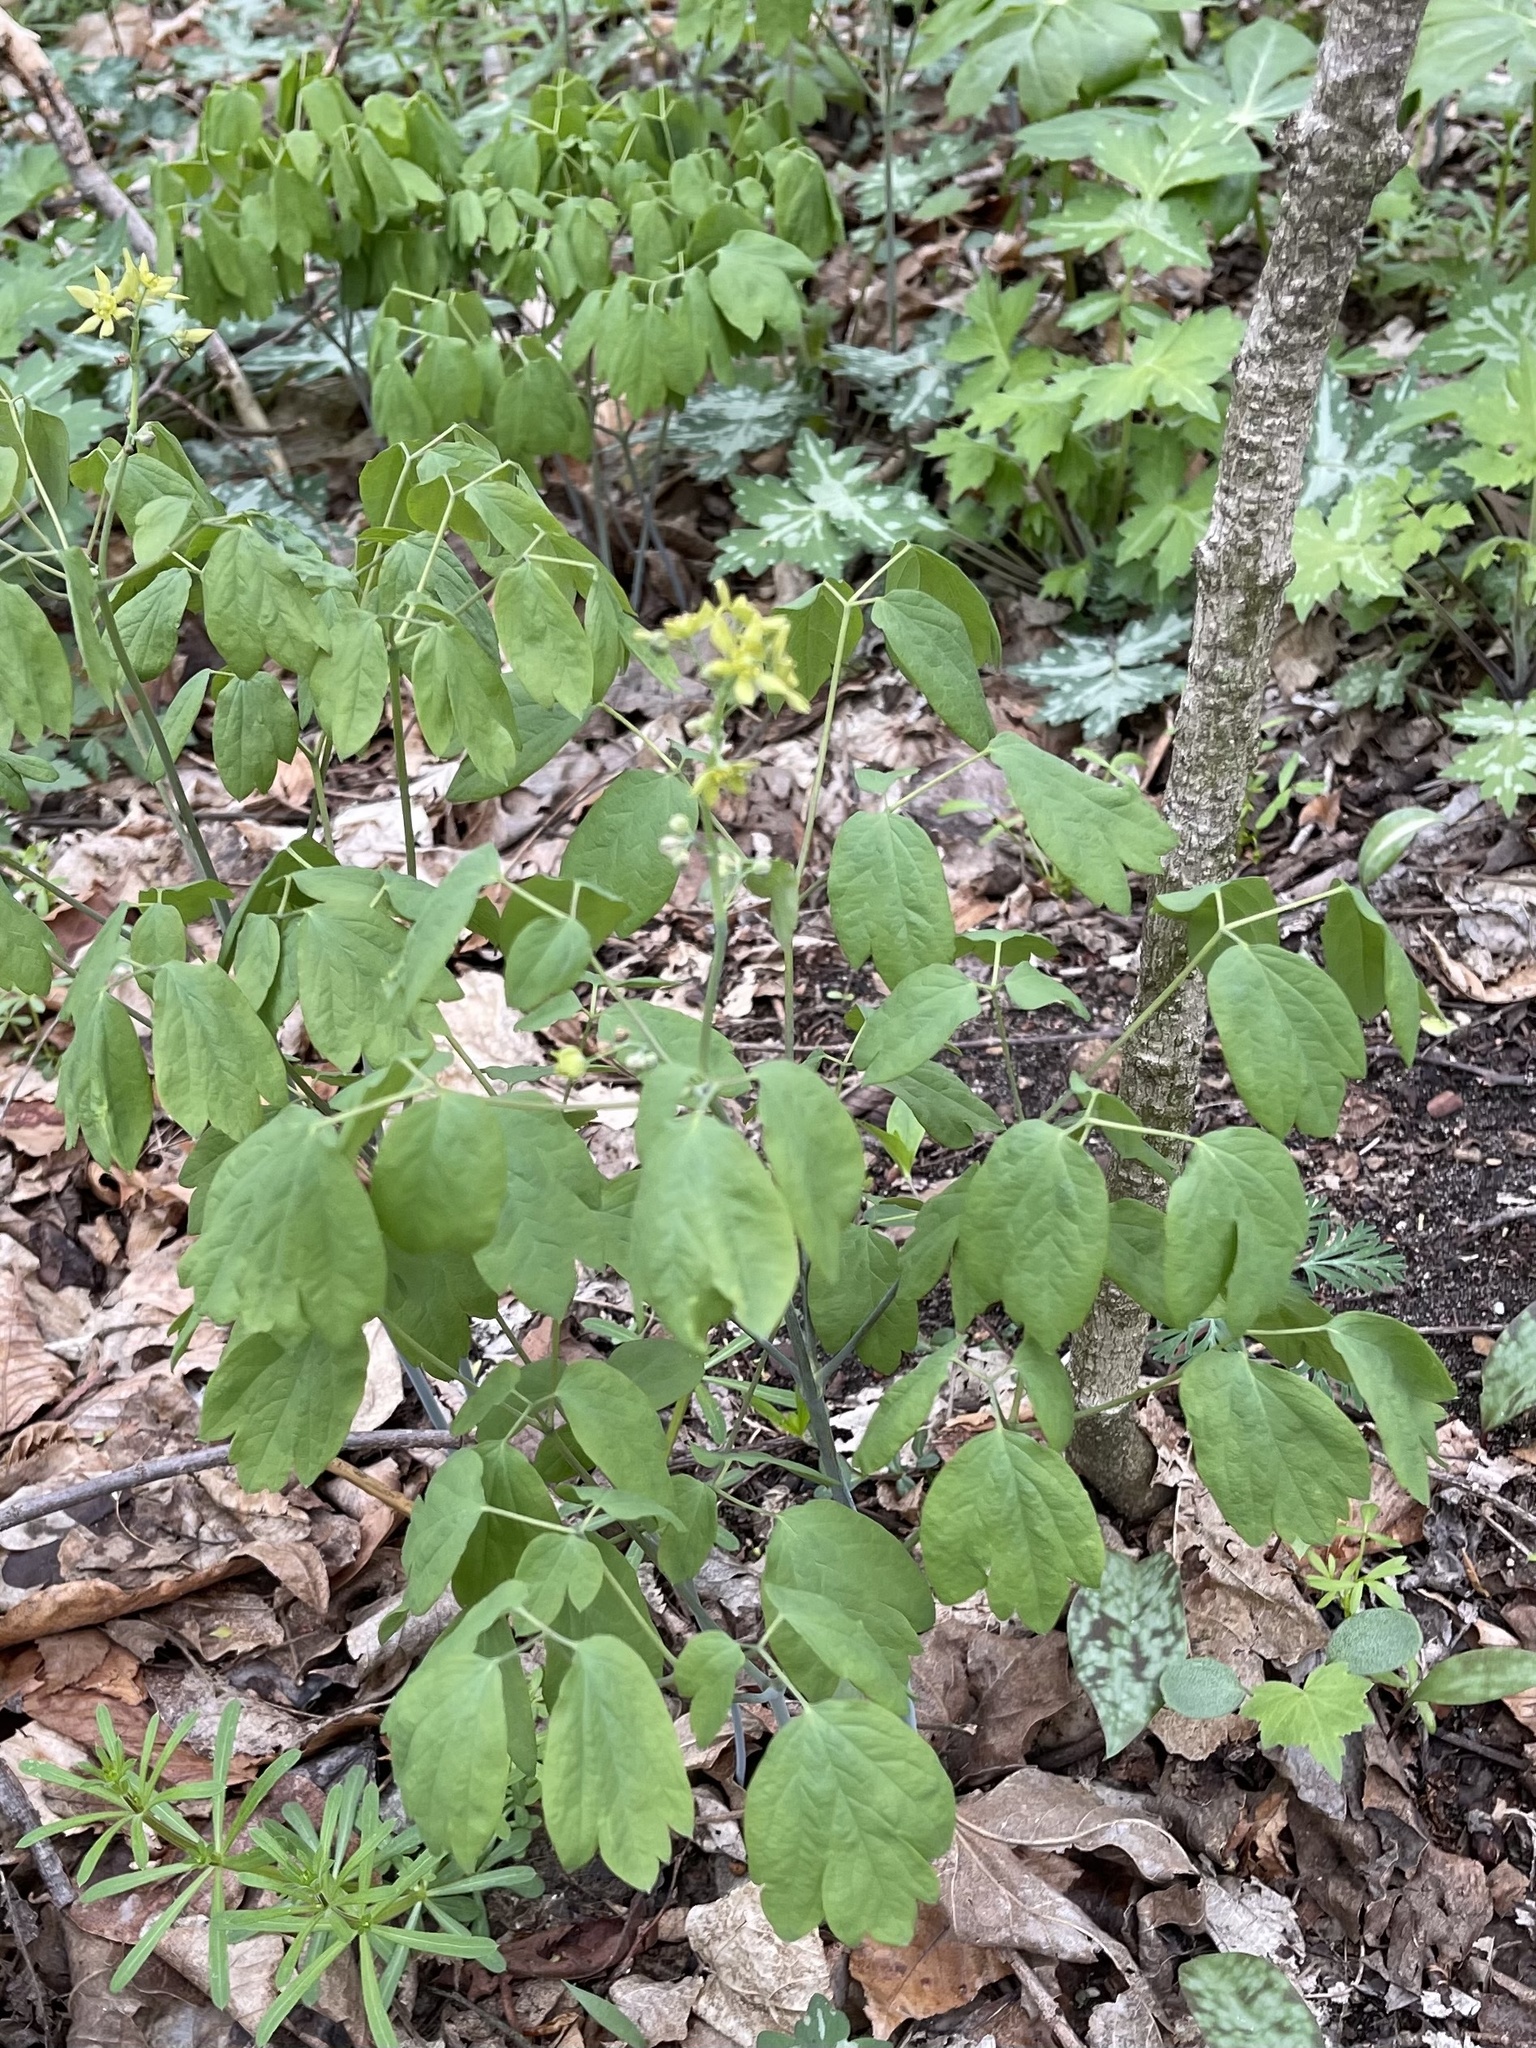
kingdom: Plantae
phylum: Tracheophyta
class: Magnoliopsida
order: Ranunculales
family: Berberidaceae
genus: Caulophyllum
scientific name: Caulophyllum thalictroides
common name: Blue cohosh
